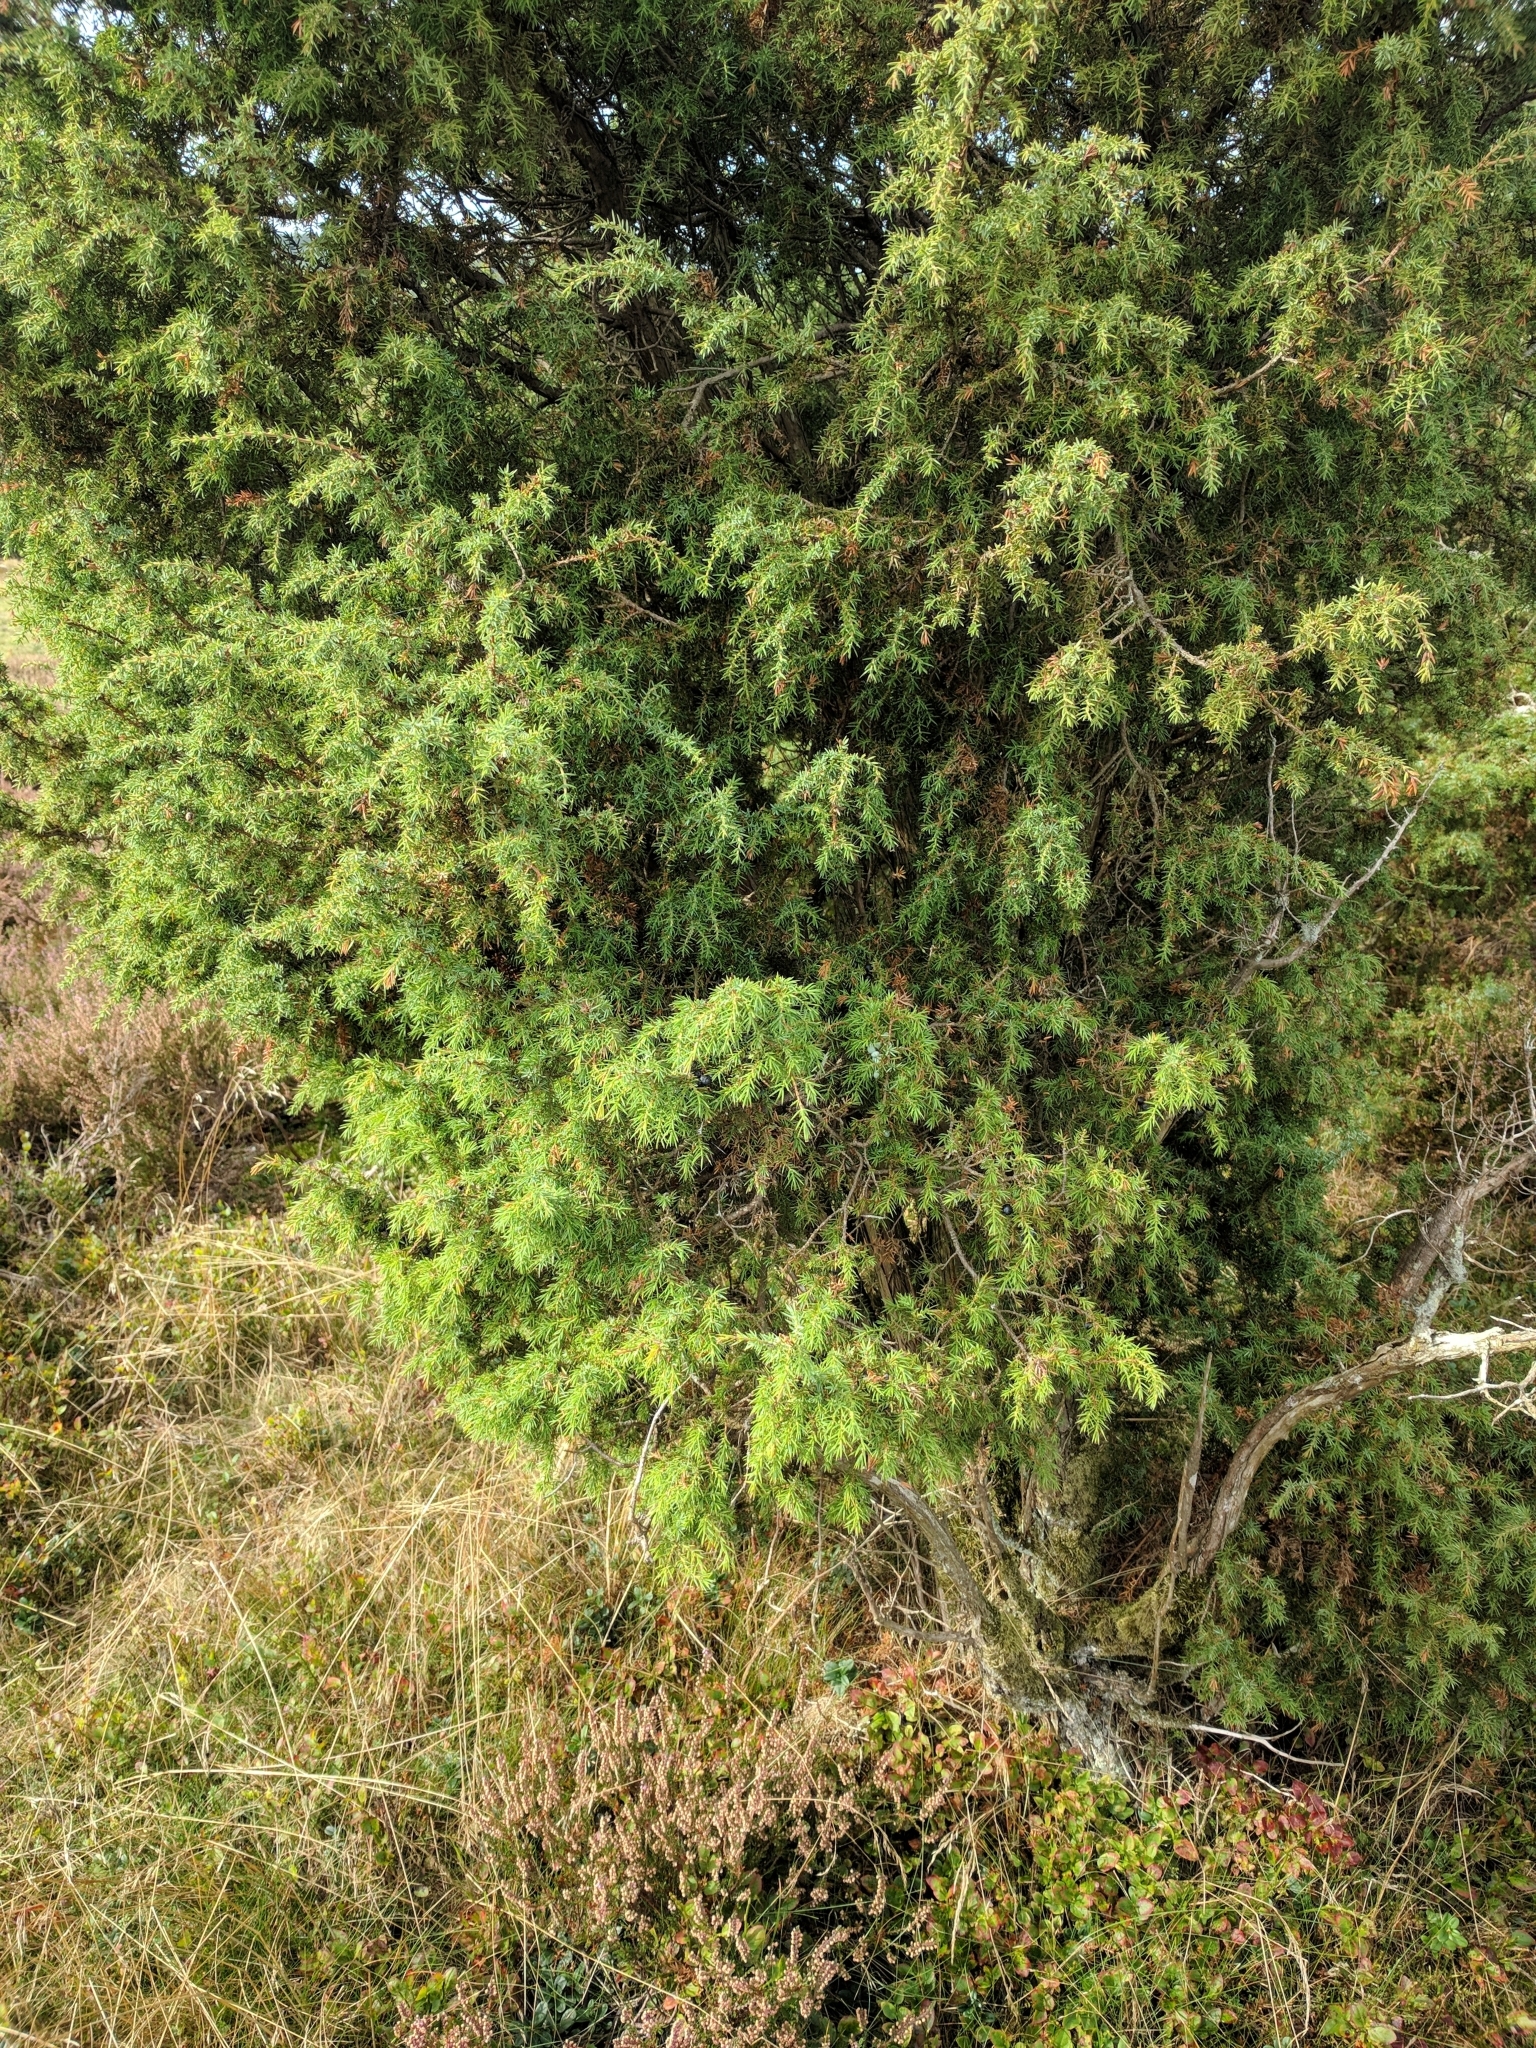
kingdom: Plantae
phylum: Tracheophyta
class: Pinopsida
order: Pinales
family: Cupressaceae
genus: Juniperus
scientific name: Juniperus communis
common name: Common juniper
